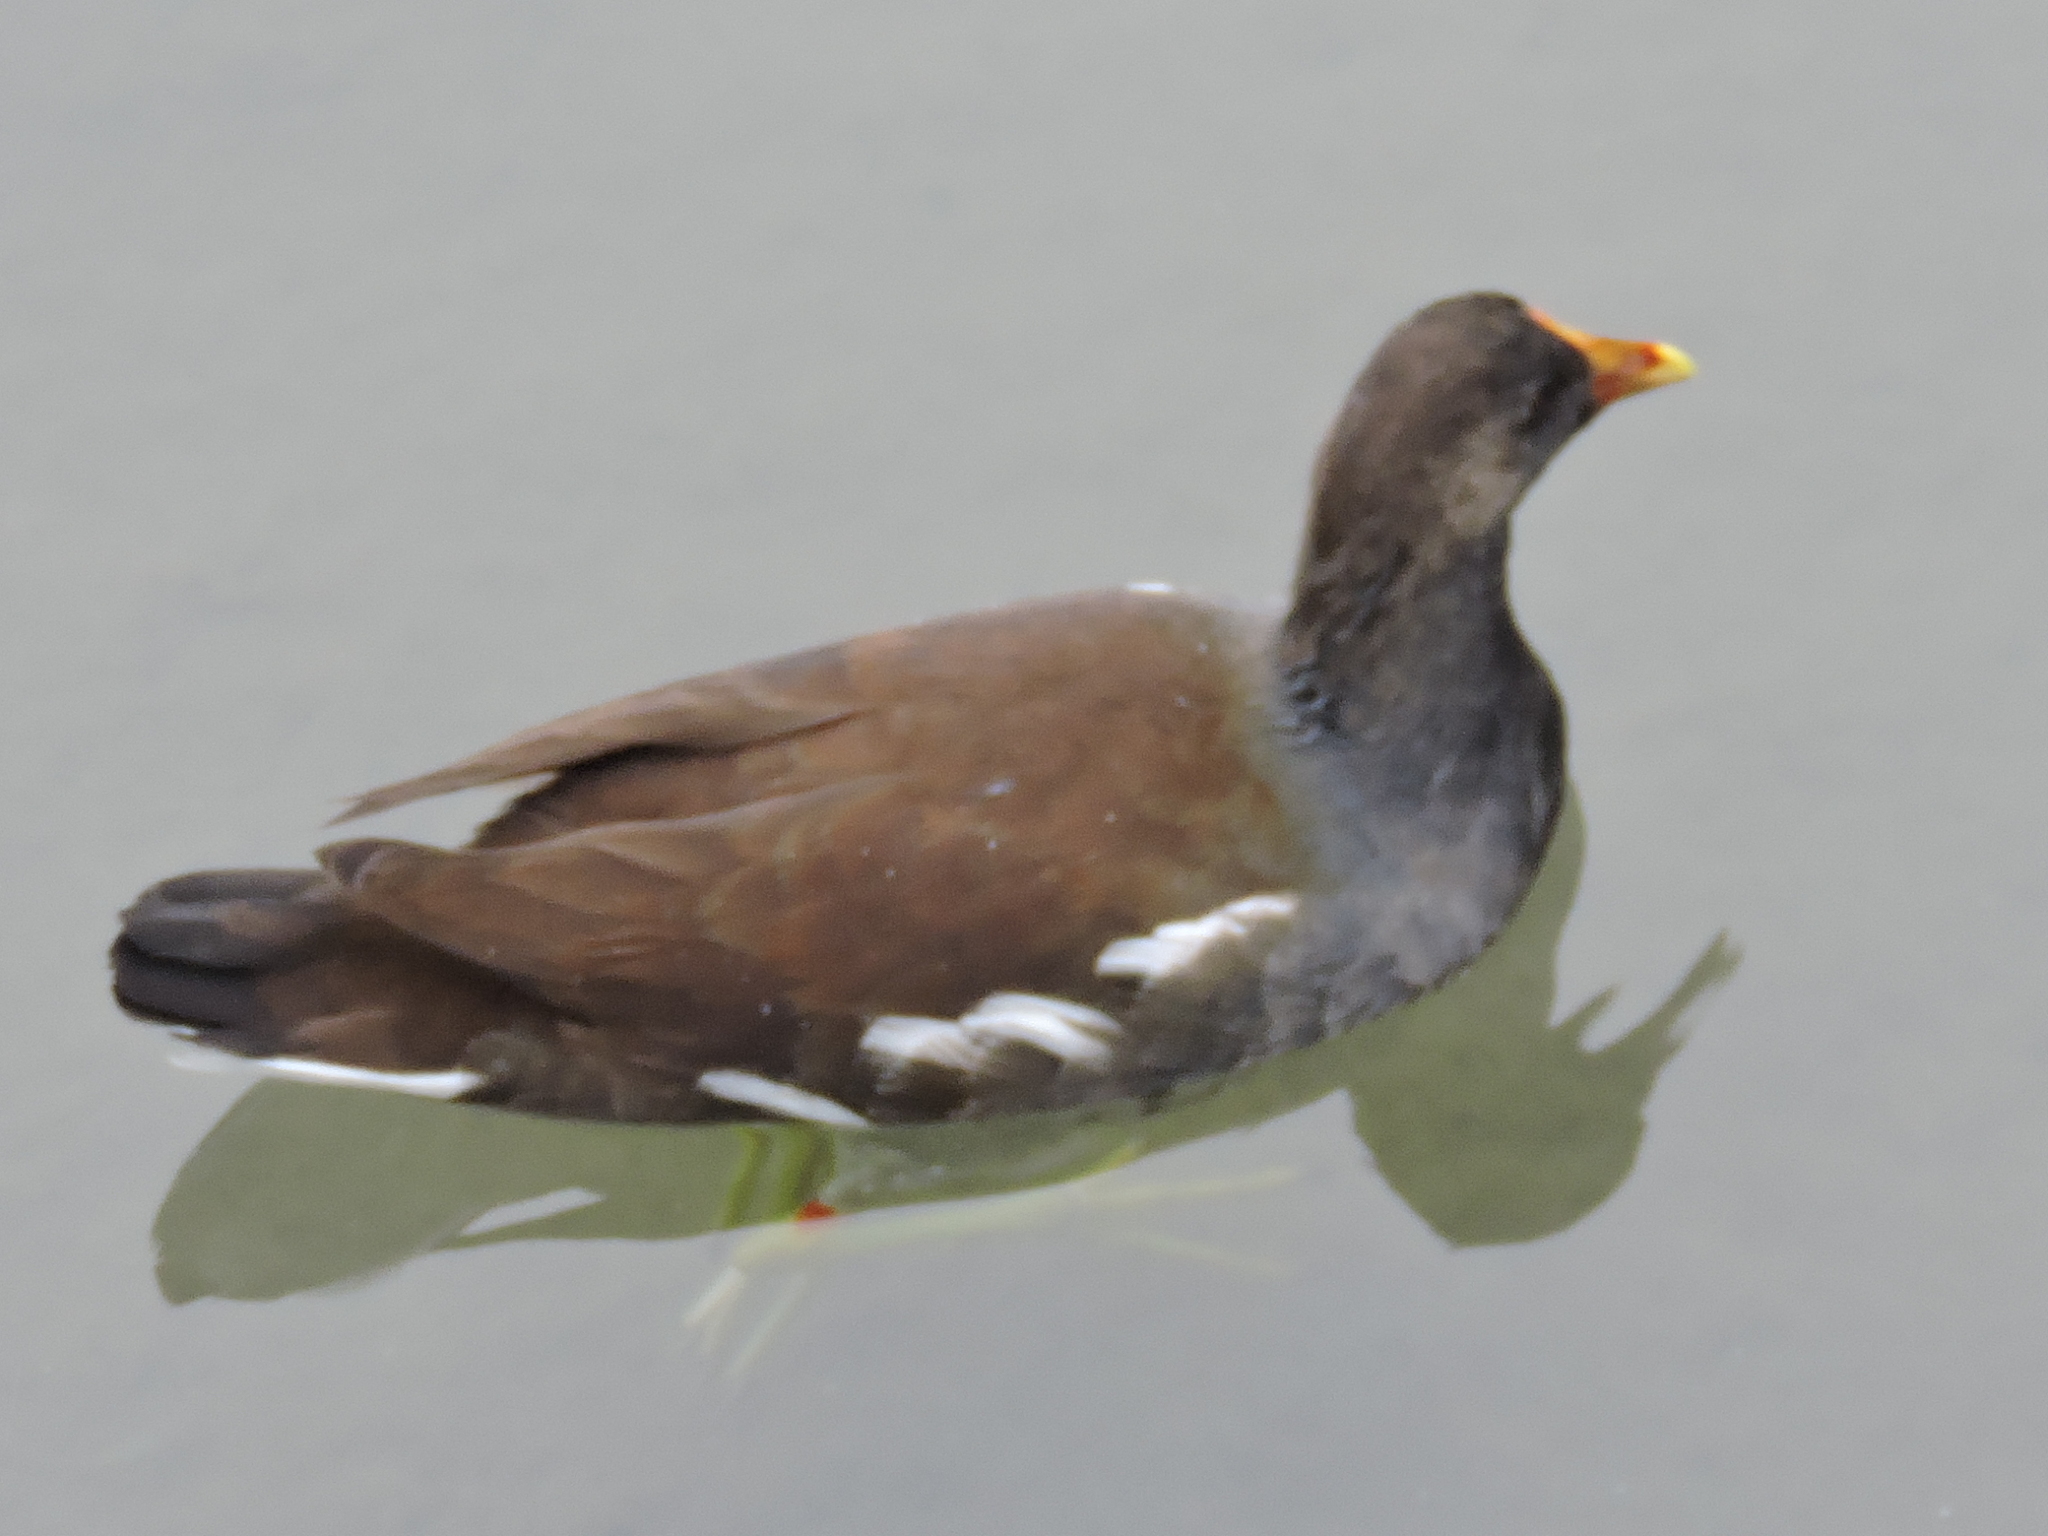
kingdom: Animalia
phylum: Chordata
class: Aves
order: Gruiformes
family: Rallidae
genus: Gallinula
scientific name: Gallinula chloropus
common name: Common moorhen
